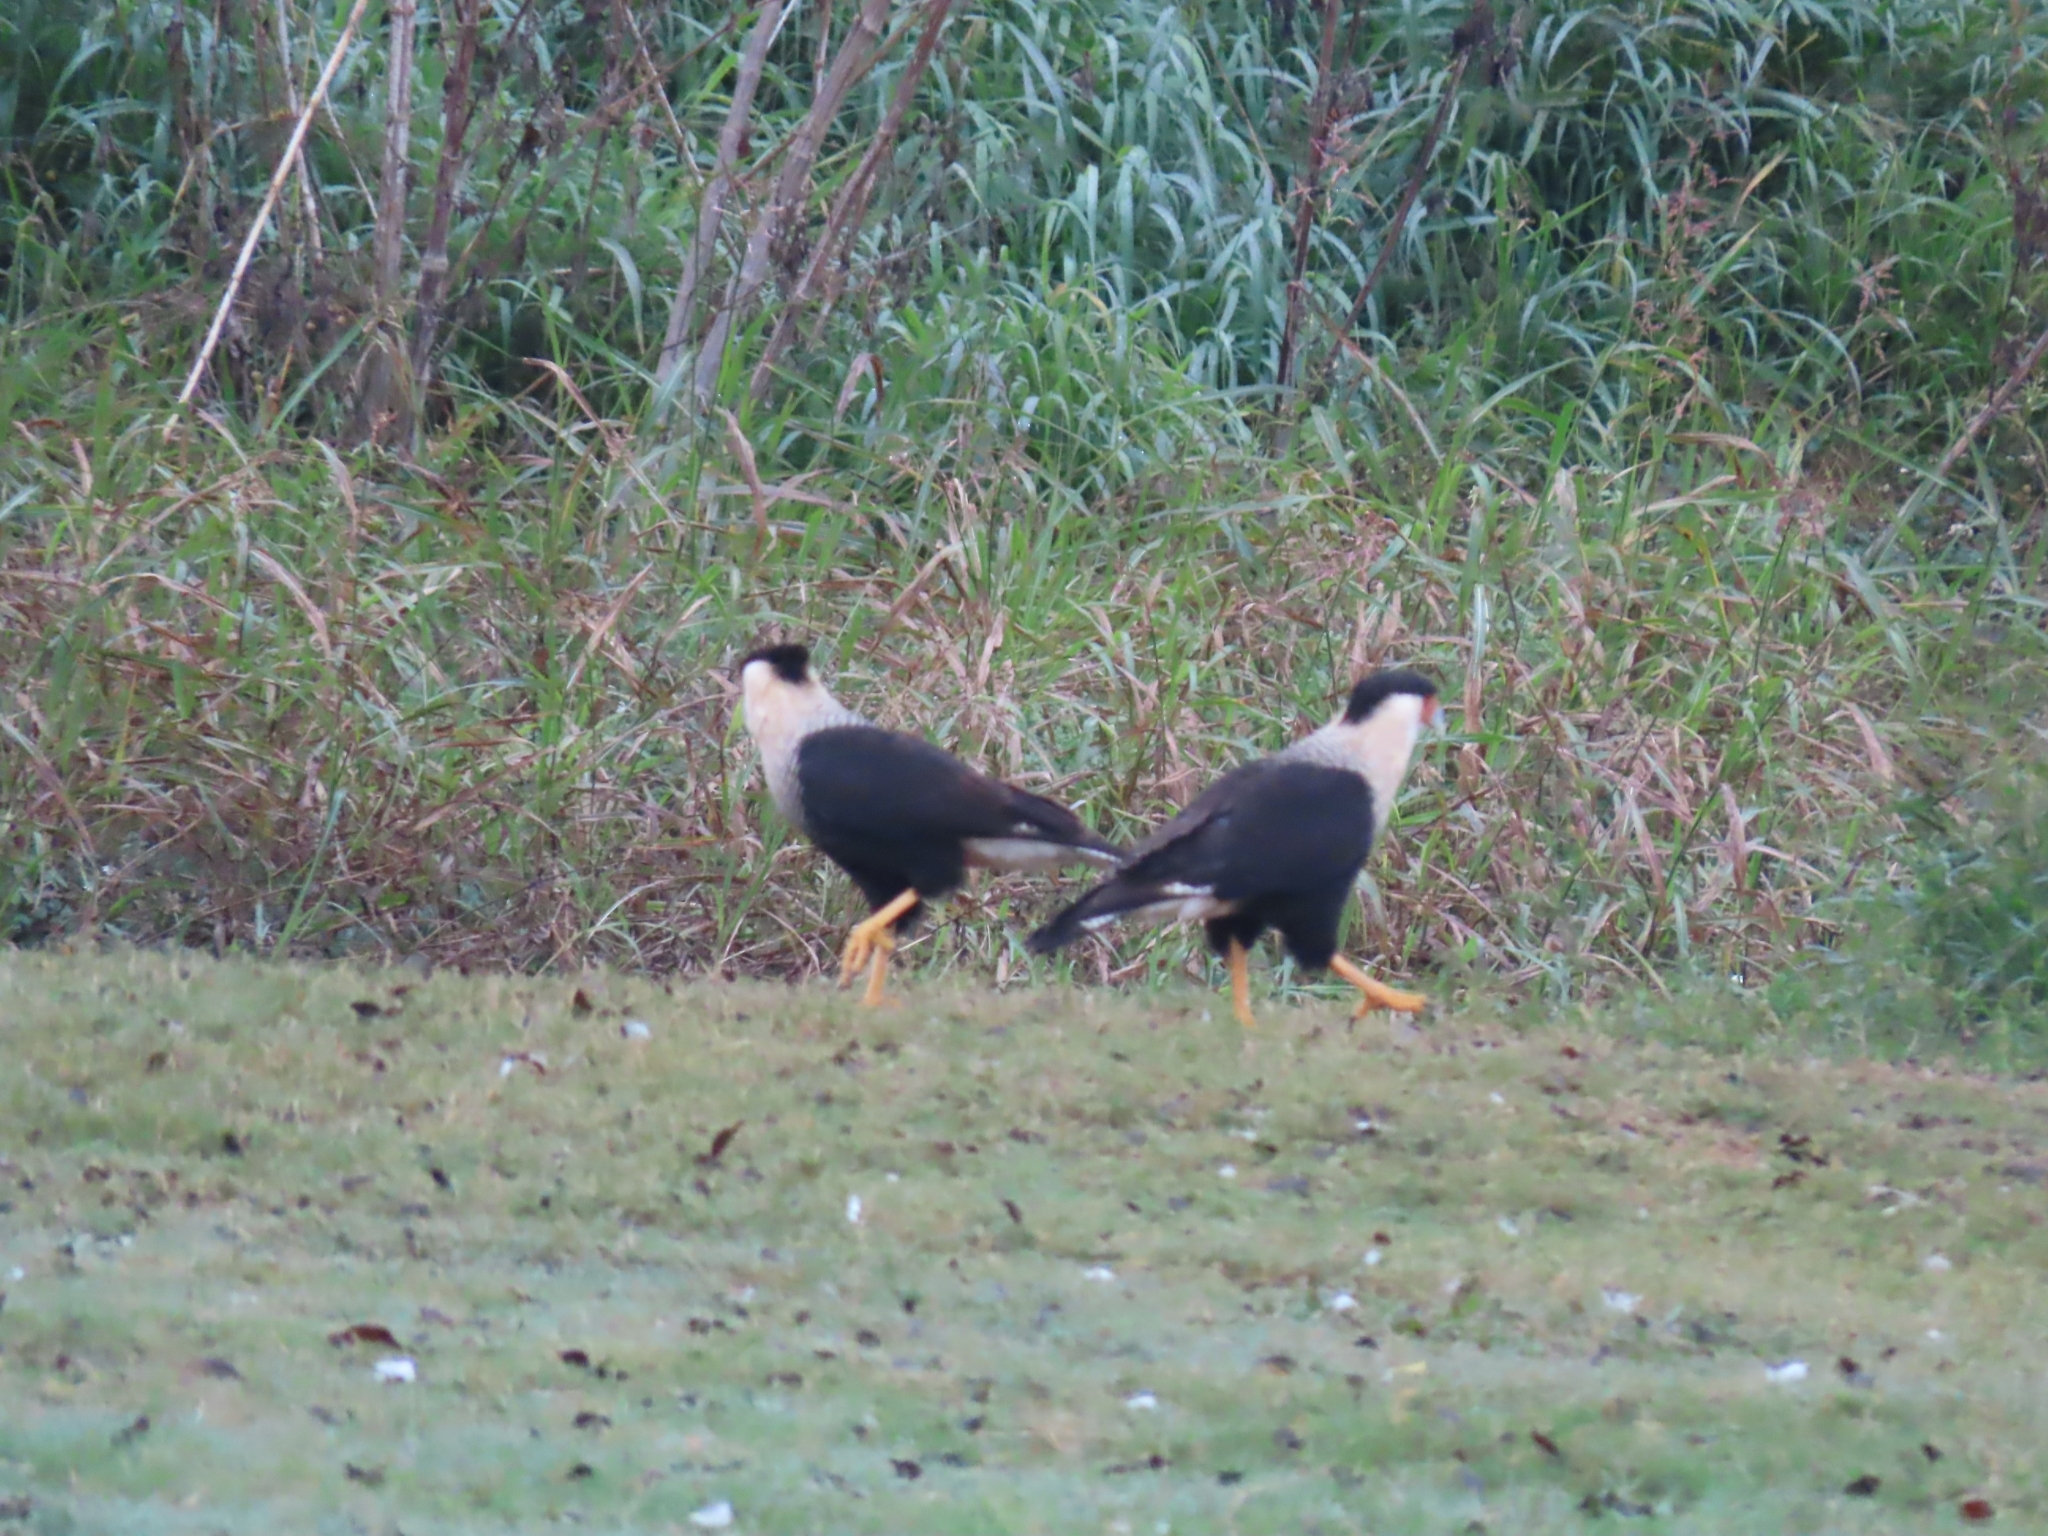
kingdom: Animalia
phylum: Chordata
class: Aves
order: Falconiformes
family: Falconidae
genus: Caracara
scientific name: Caracara plancus
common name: Southern caracara
